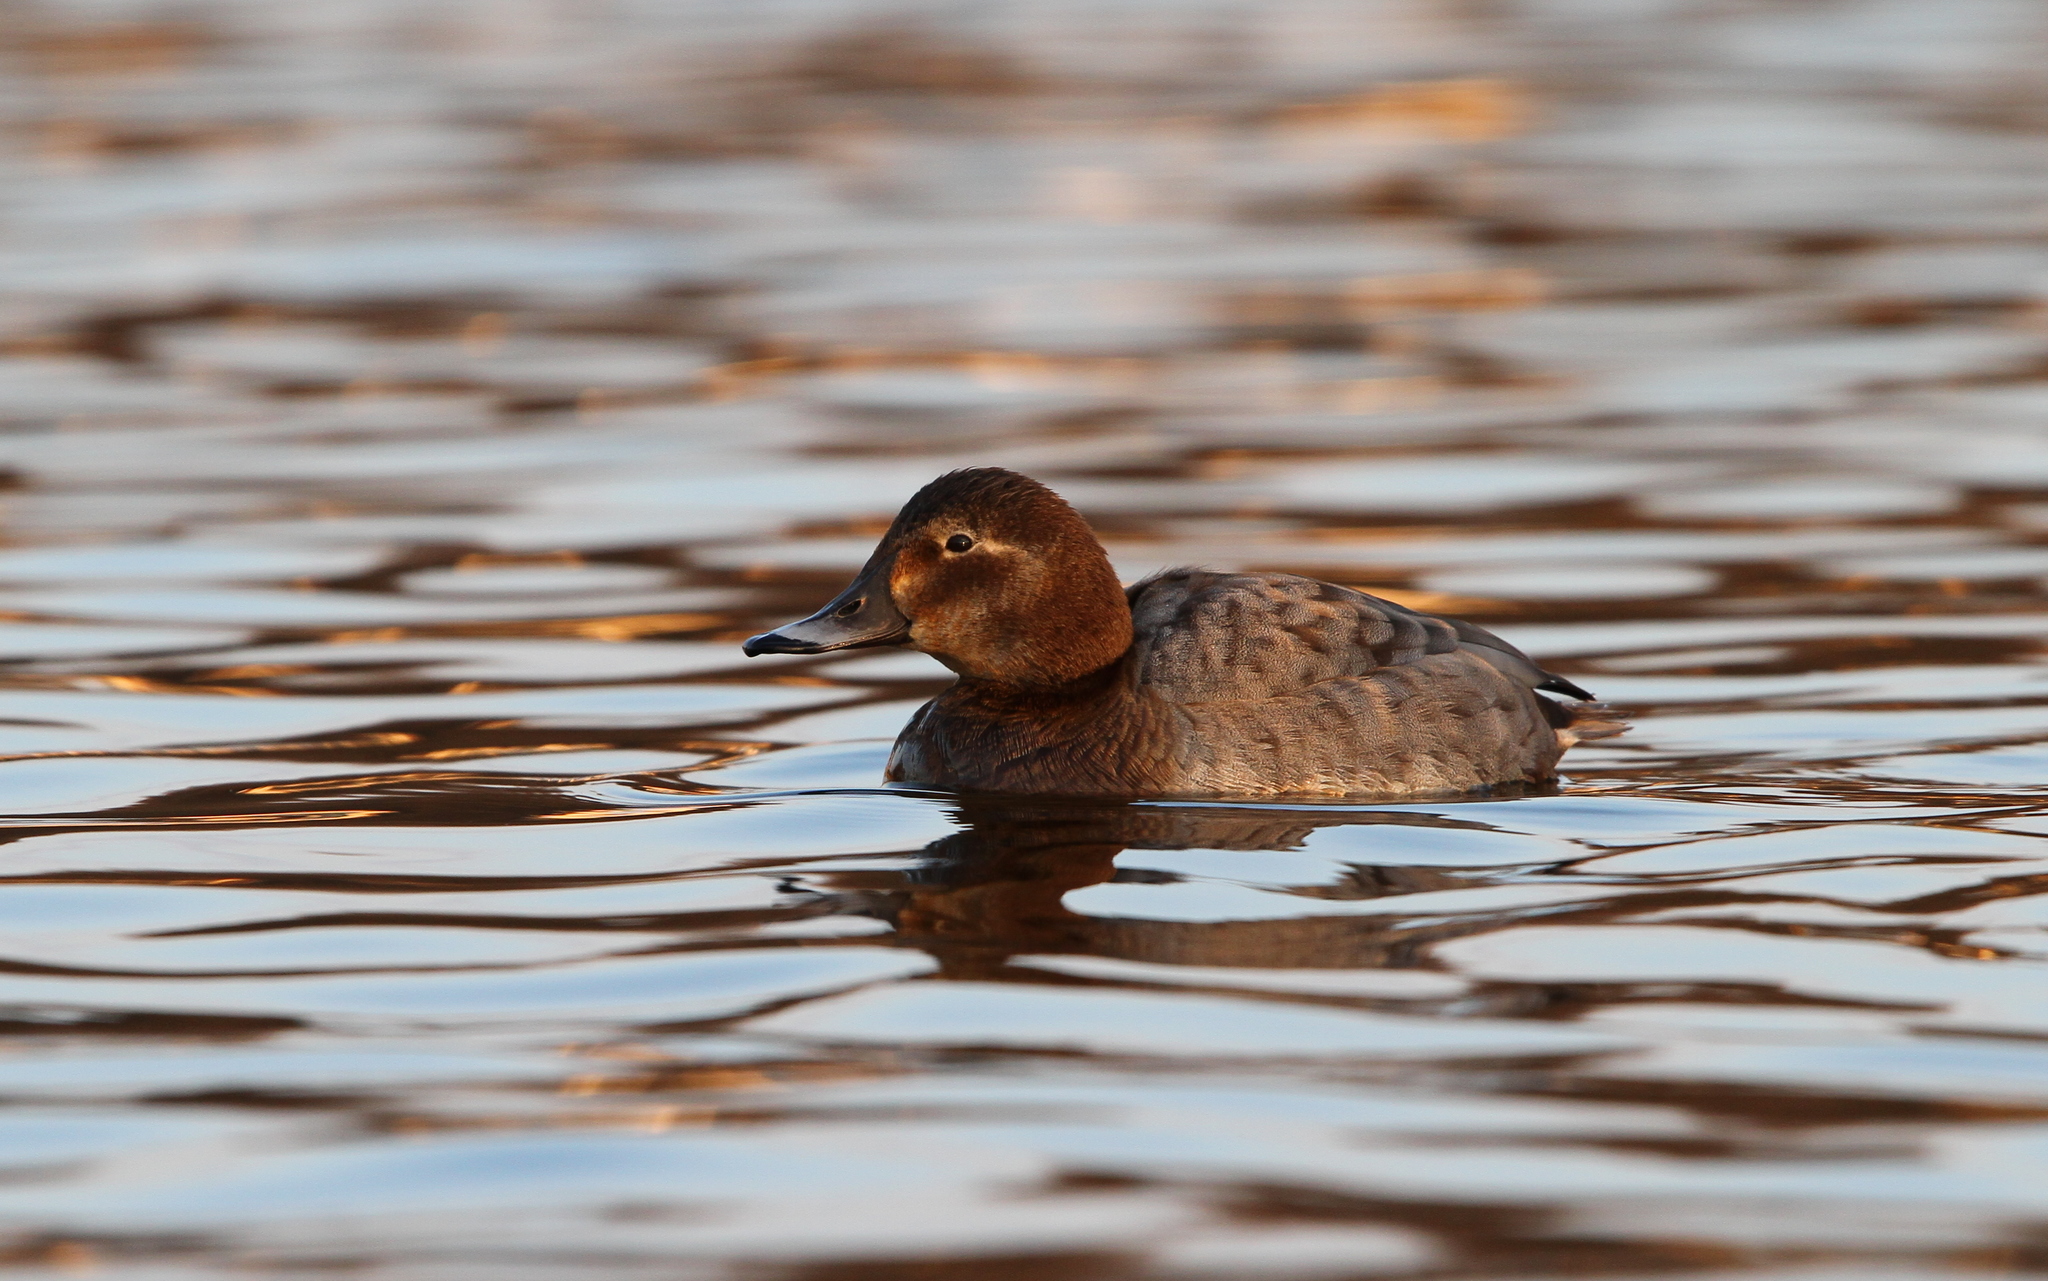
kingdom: Animalia
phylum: Chordata
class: Aves
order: Anseriformes
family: Anatidae
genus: Aythya
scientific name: Aythya ferina
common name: Common pochard
